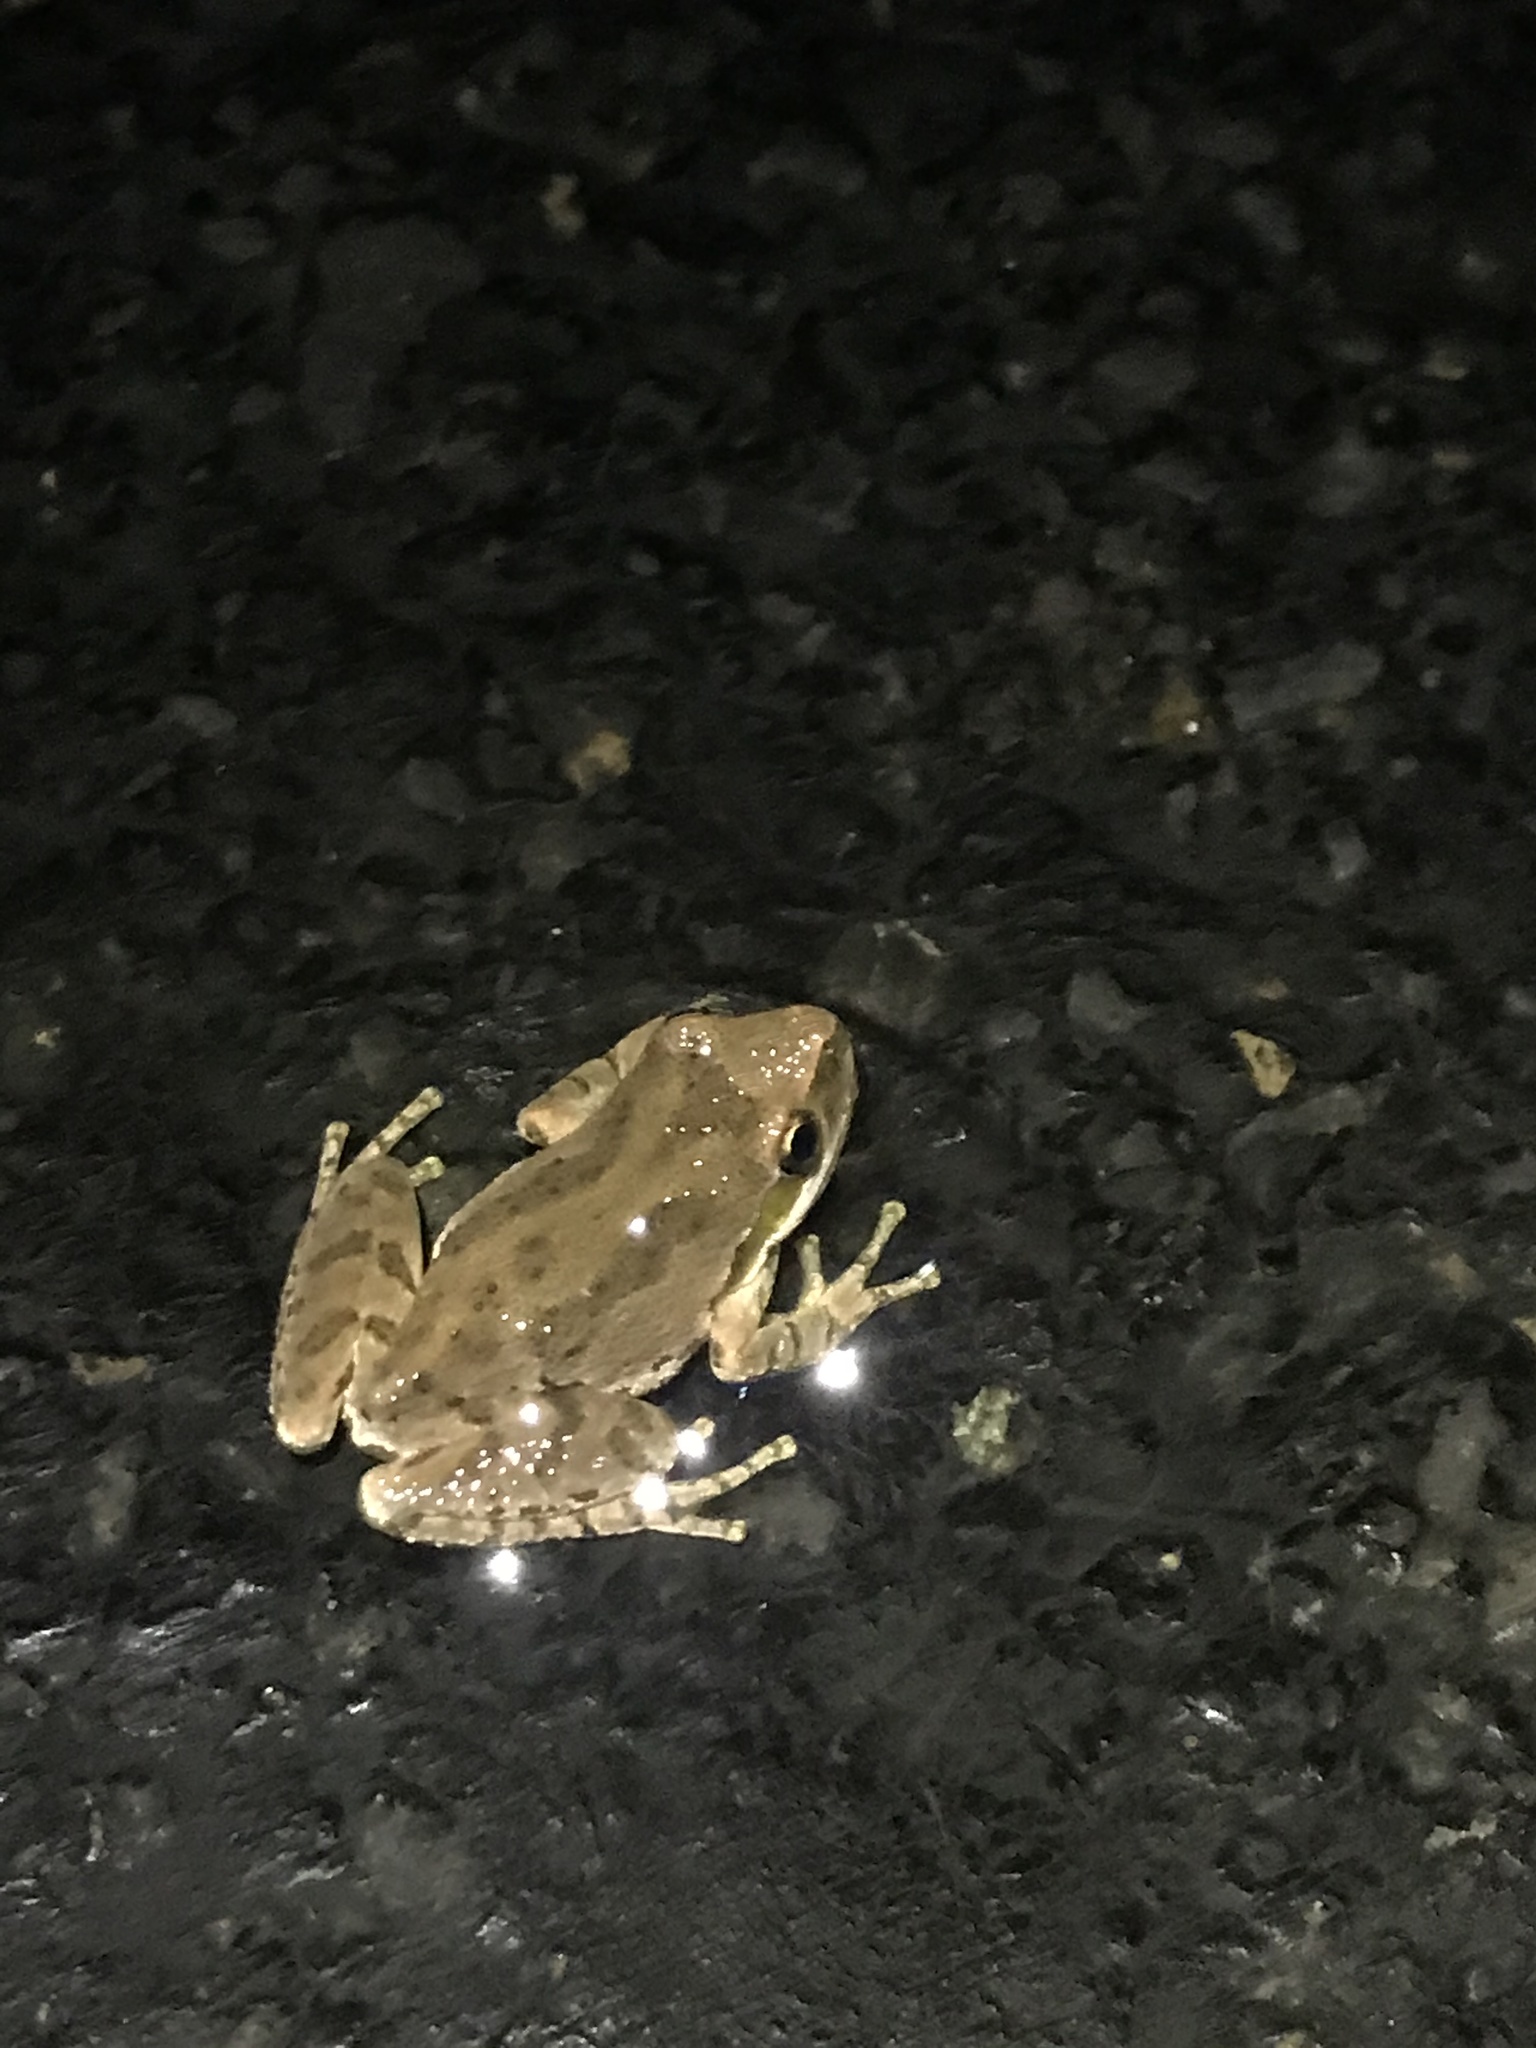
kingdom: Animalia
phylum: Chordata
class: Amphibia
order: Anura
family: Hylidae
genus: Pseudacris
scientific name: Pseudacris regilla
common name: Pacific chorus frog
